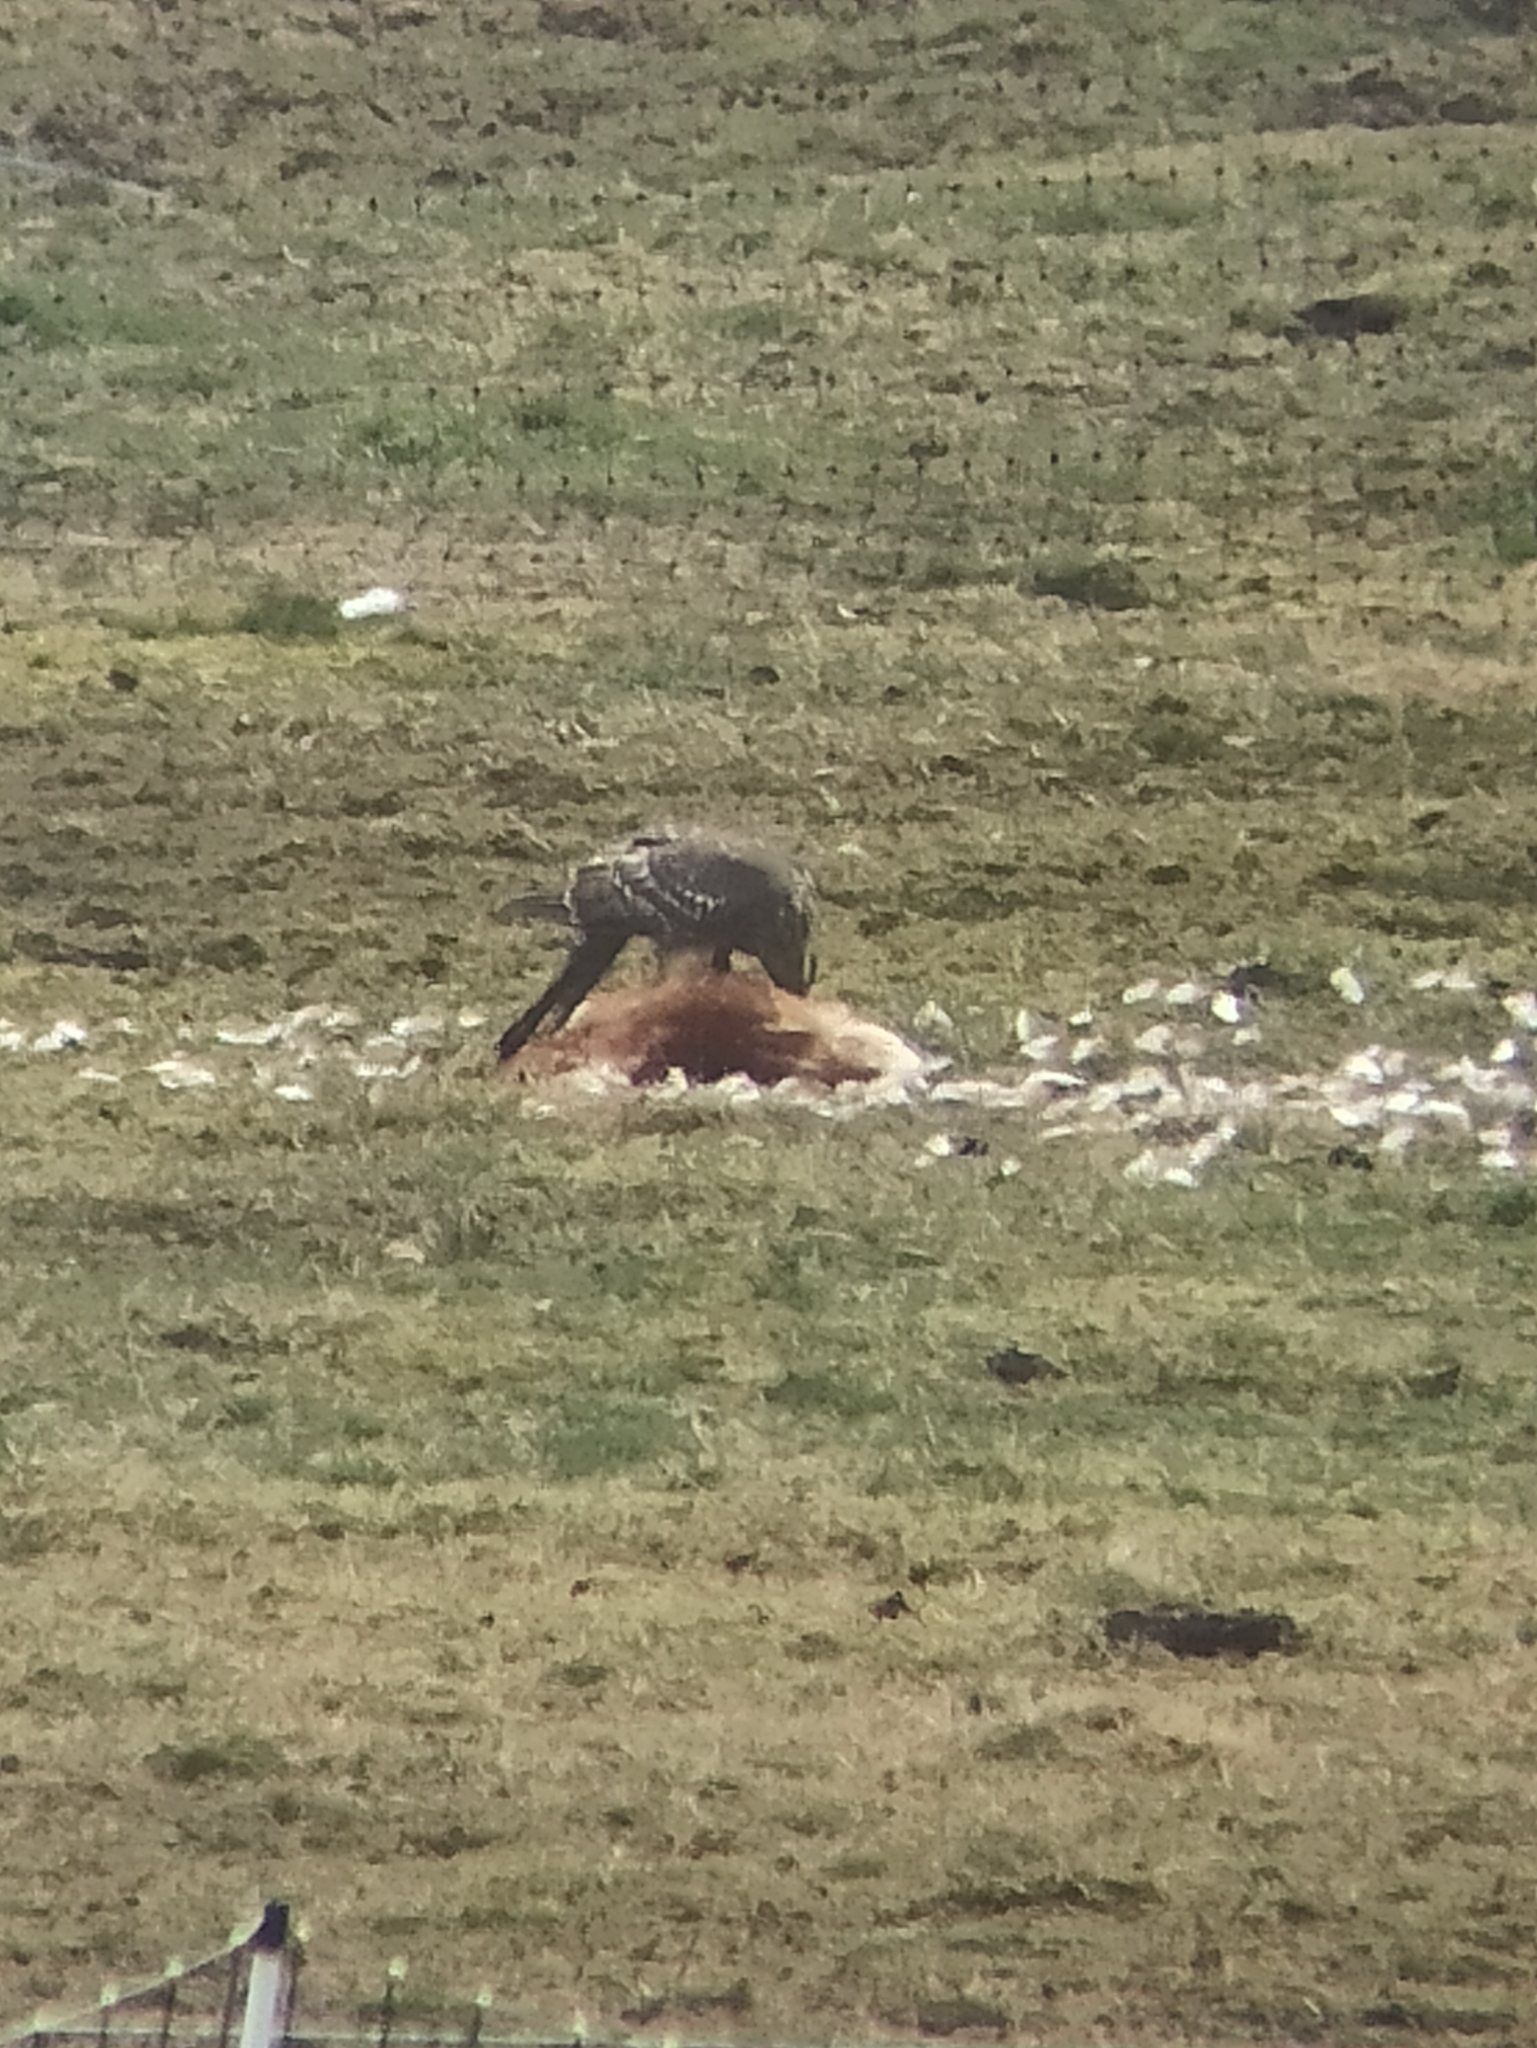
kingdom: Animalia
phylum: Chordata
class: Aves
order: Accipitriformes
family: Accipitridae
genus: Accipiter
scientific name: Accipiter gentilis
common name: Northern goshawk
